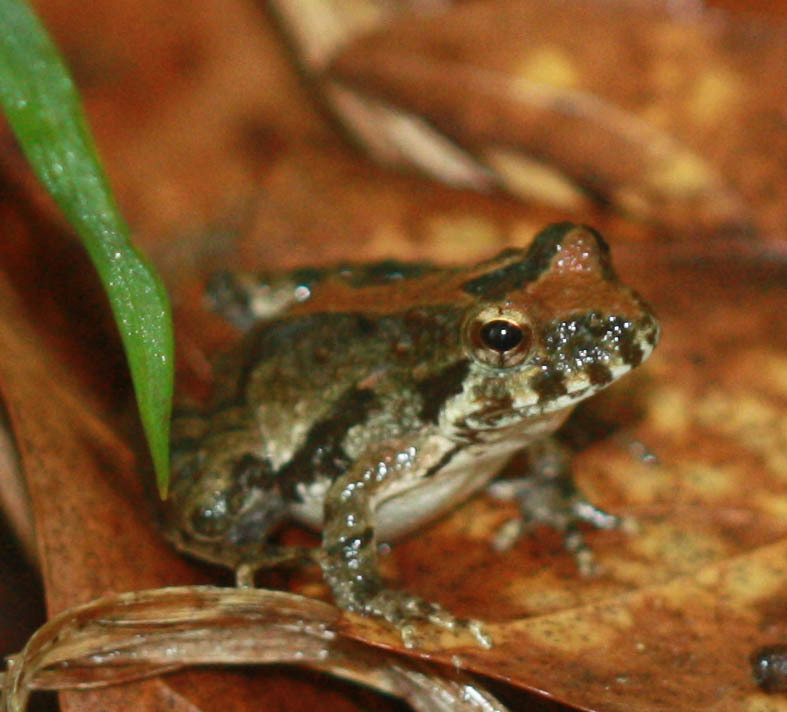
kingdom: Animalia
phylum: Chordata
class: Amphibia
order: Anura
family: Hylidae
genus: Acris
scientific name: Acris blanchardi
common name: Blanchard's cricket frog
